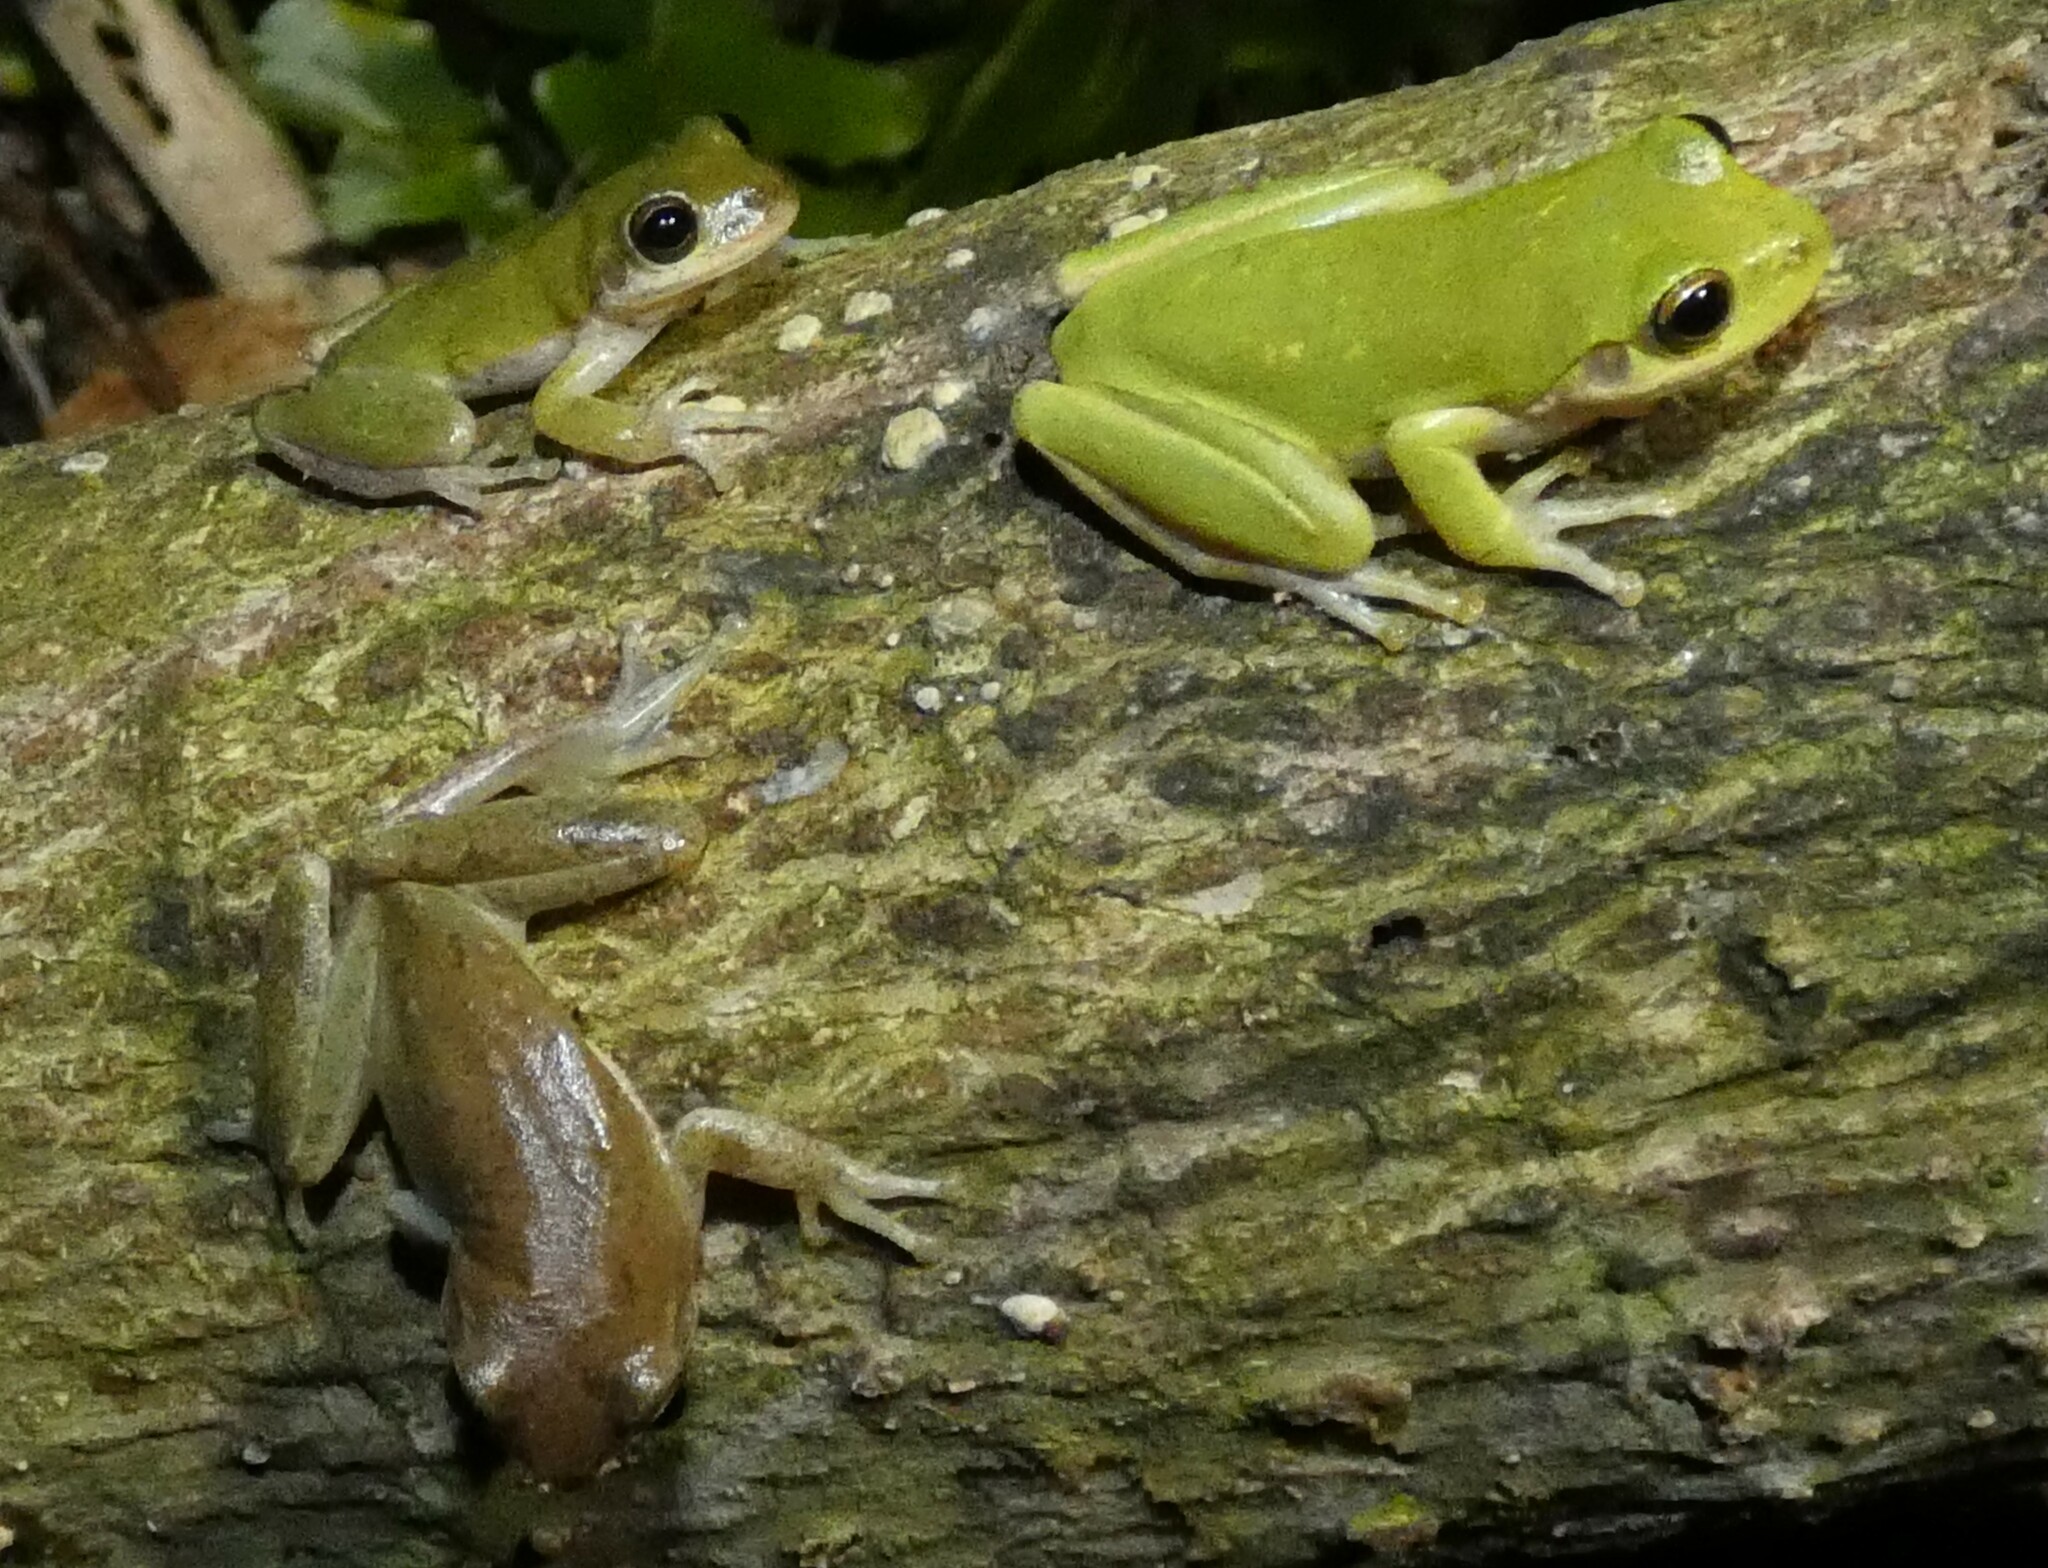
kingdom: Animalia
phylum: Chordata
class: Amphibia
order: Anura
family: Hylidae
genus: Dryophytes
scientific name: Dryophytes squirellus
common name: Squirrel treefrog
